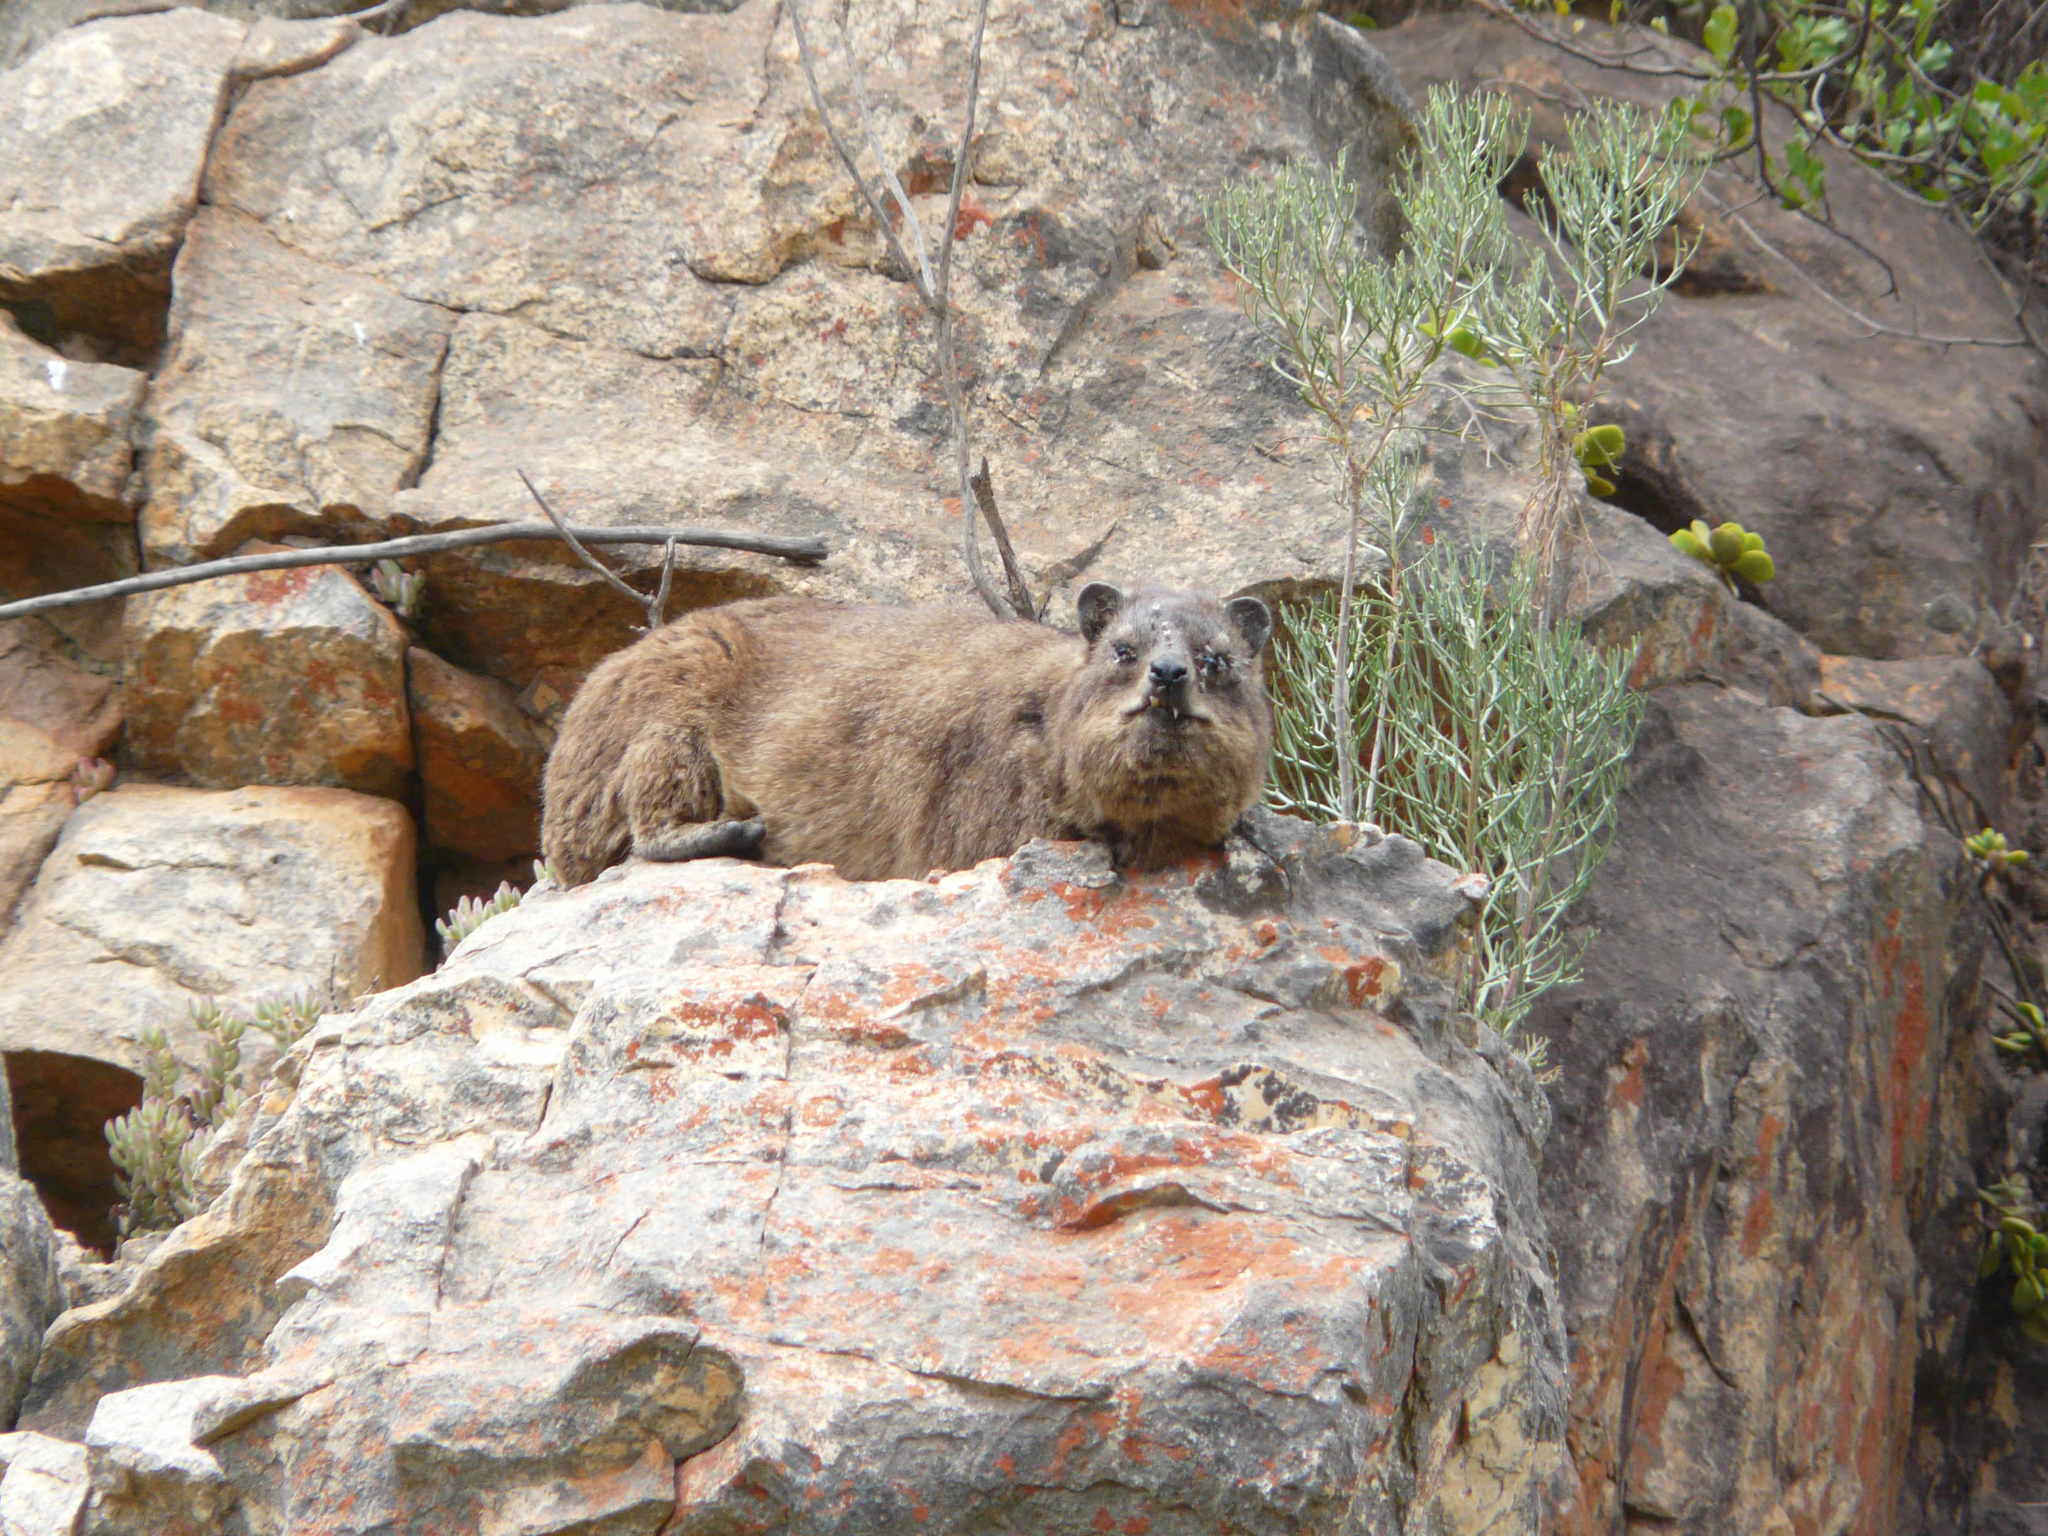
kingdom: Animalia
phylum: Chordata
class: Mammalia
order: Hyracoidea
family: Procaviidae
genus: Procavia
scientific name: Procavia capensis
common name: Rock hyrax
